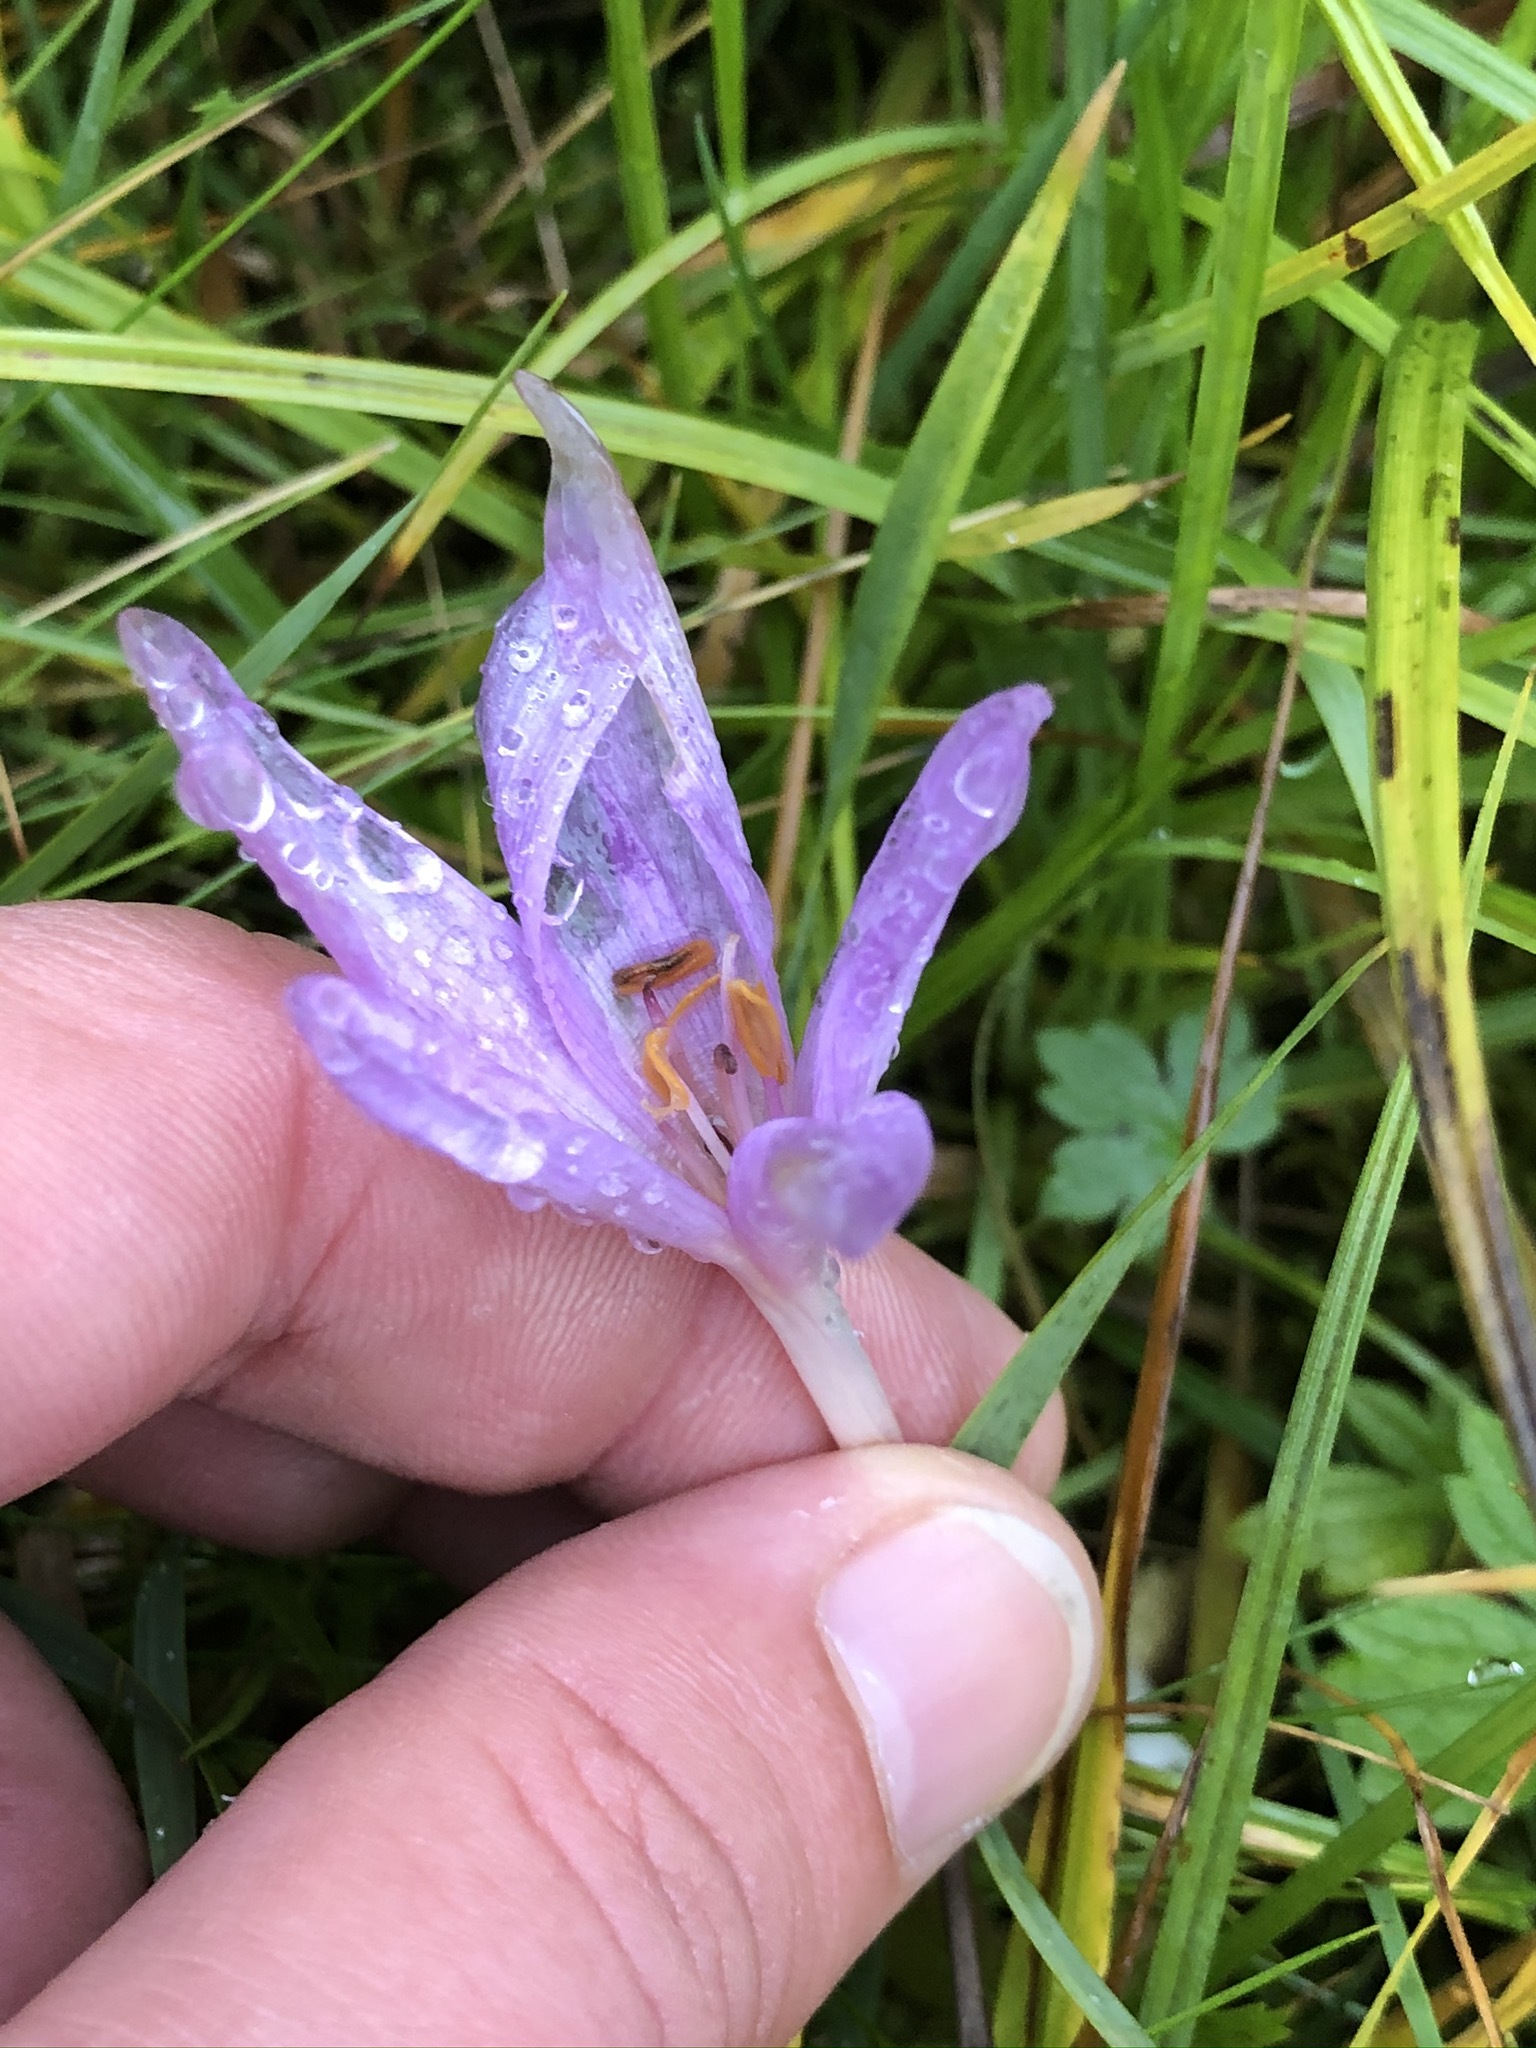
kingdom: Plantae
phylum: Tracheophyta
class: Liliopsida
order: Liliales
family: Colchicaceae
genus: Colchicum
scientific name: Colchicum autumnale
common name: Autumn crocus
